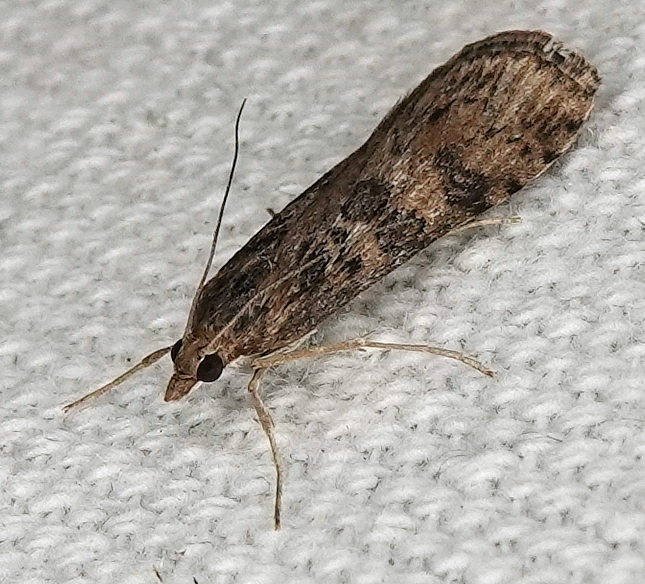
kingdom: Animalia
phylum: Arthropoda
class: Insecta
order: Lepidoptera
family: Crambidae
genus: Nomophila
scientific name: Nomophila nearctica
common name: American rush veneer
